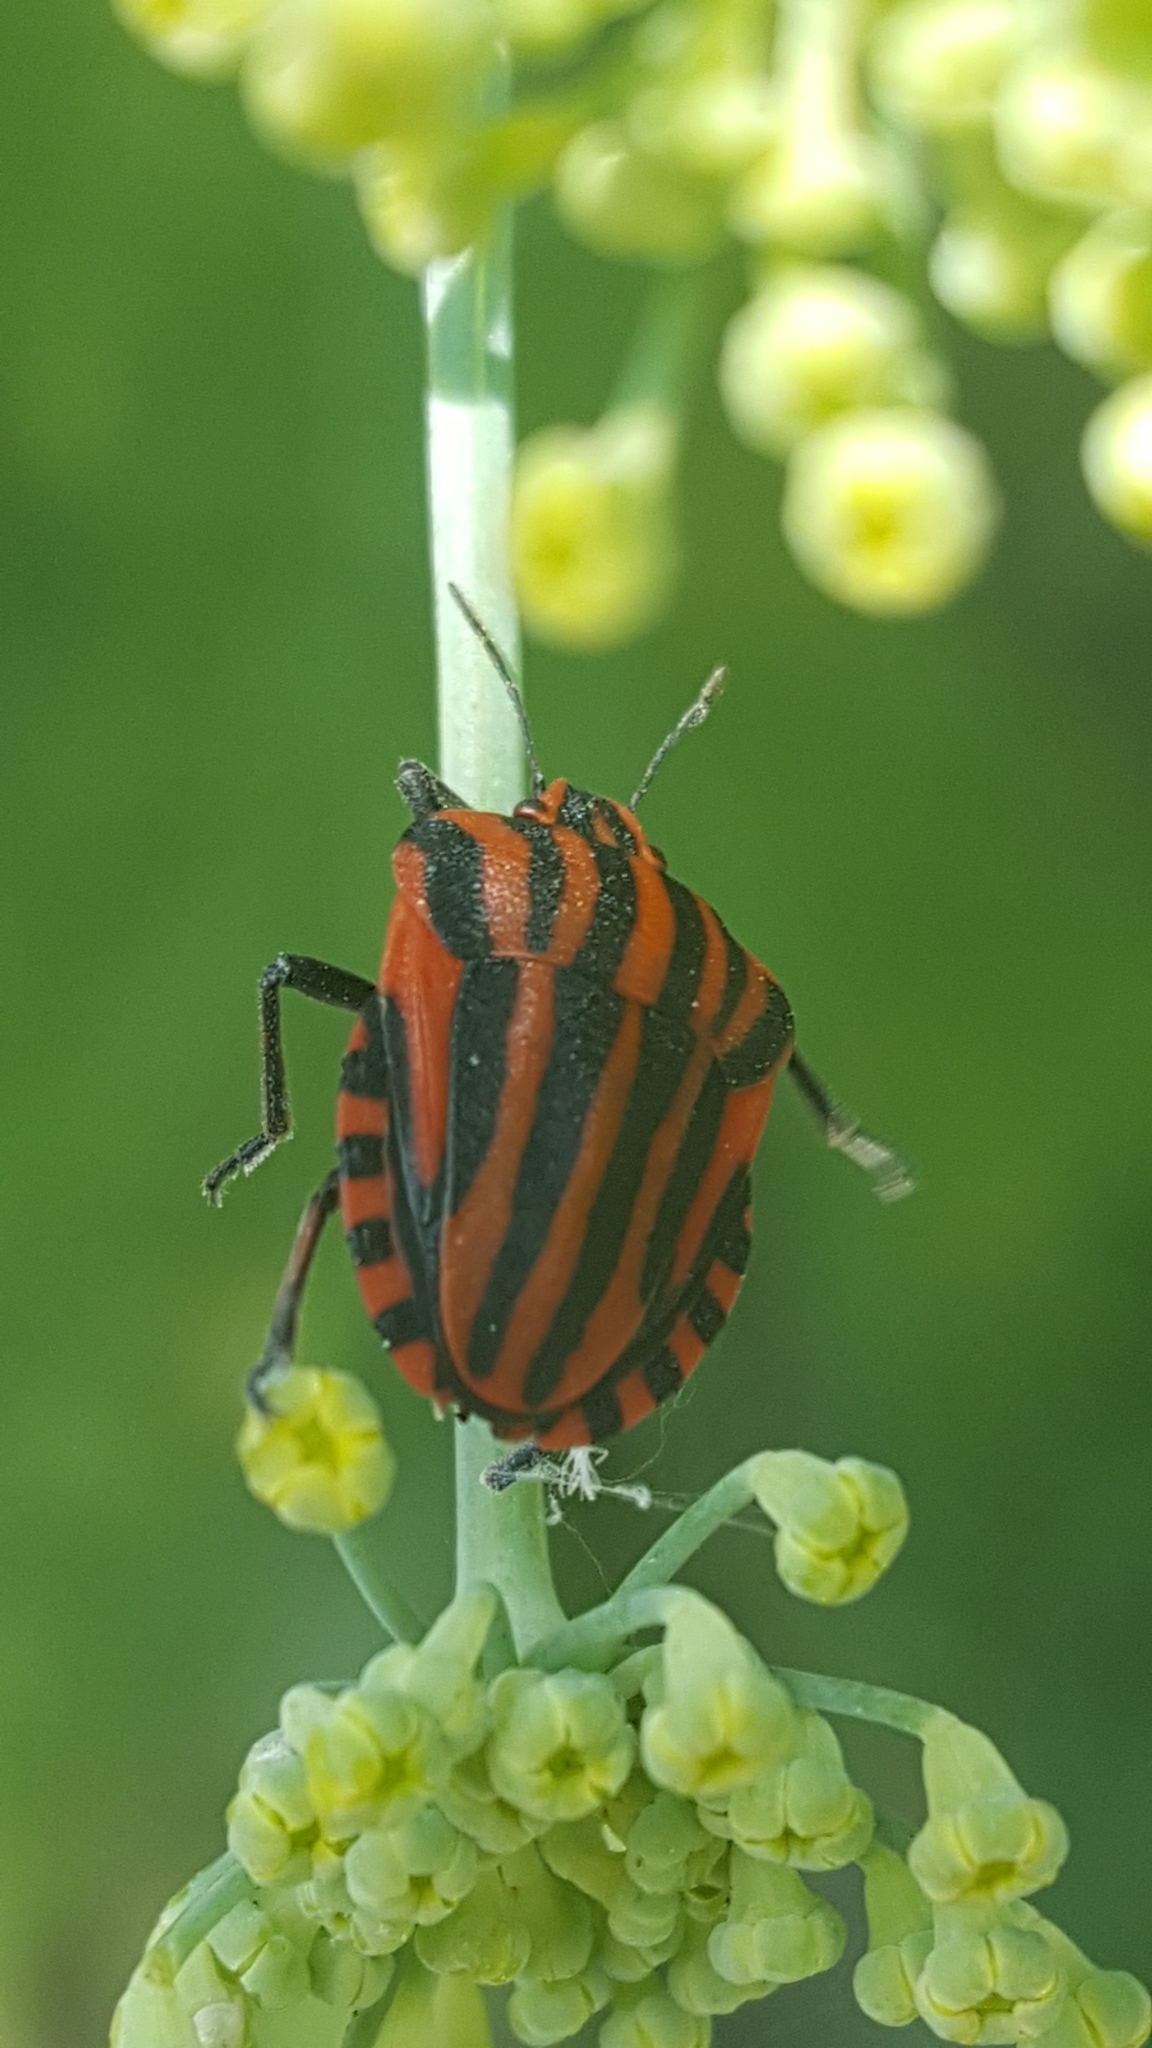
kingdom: Animalia
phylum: Arthropoda
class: Insecta
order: Hemiptera
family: Pentatomidae
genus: Graphosoma
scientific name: Graphosoma italicum
